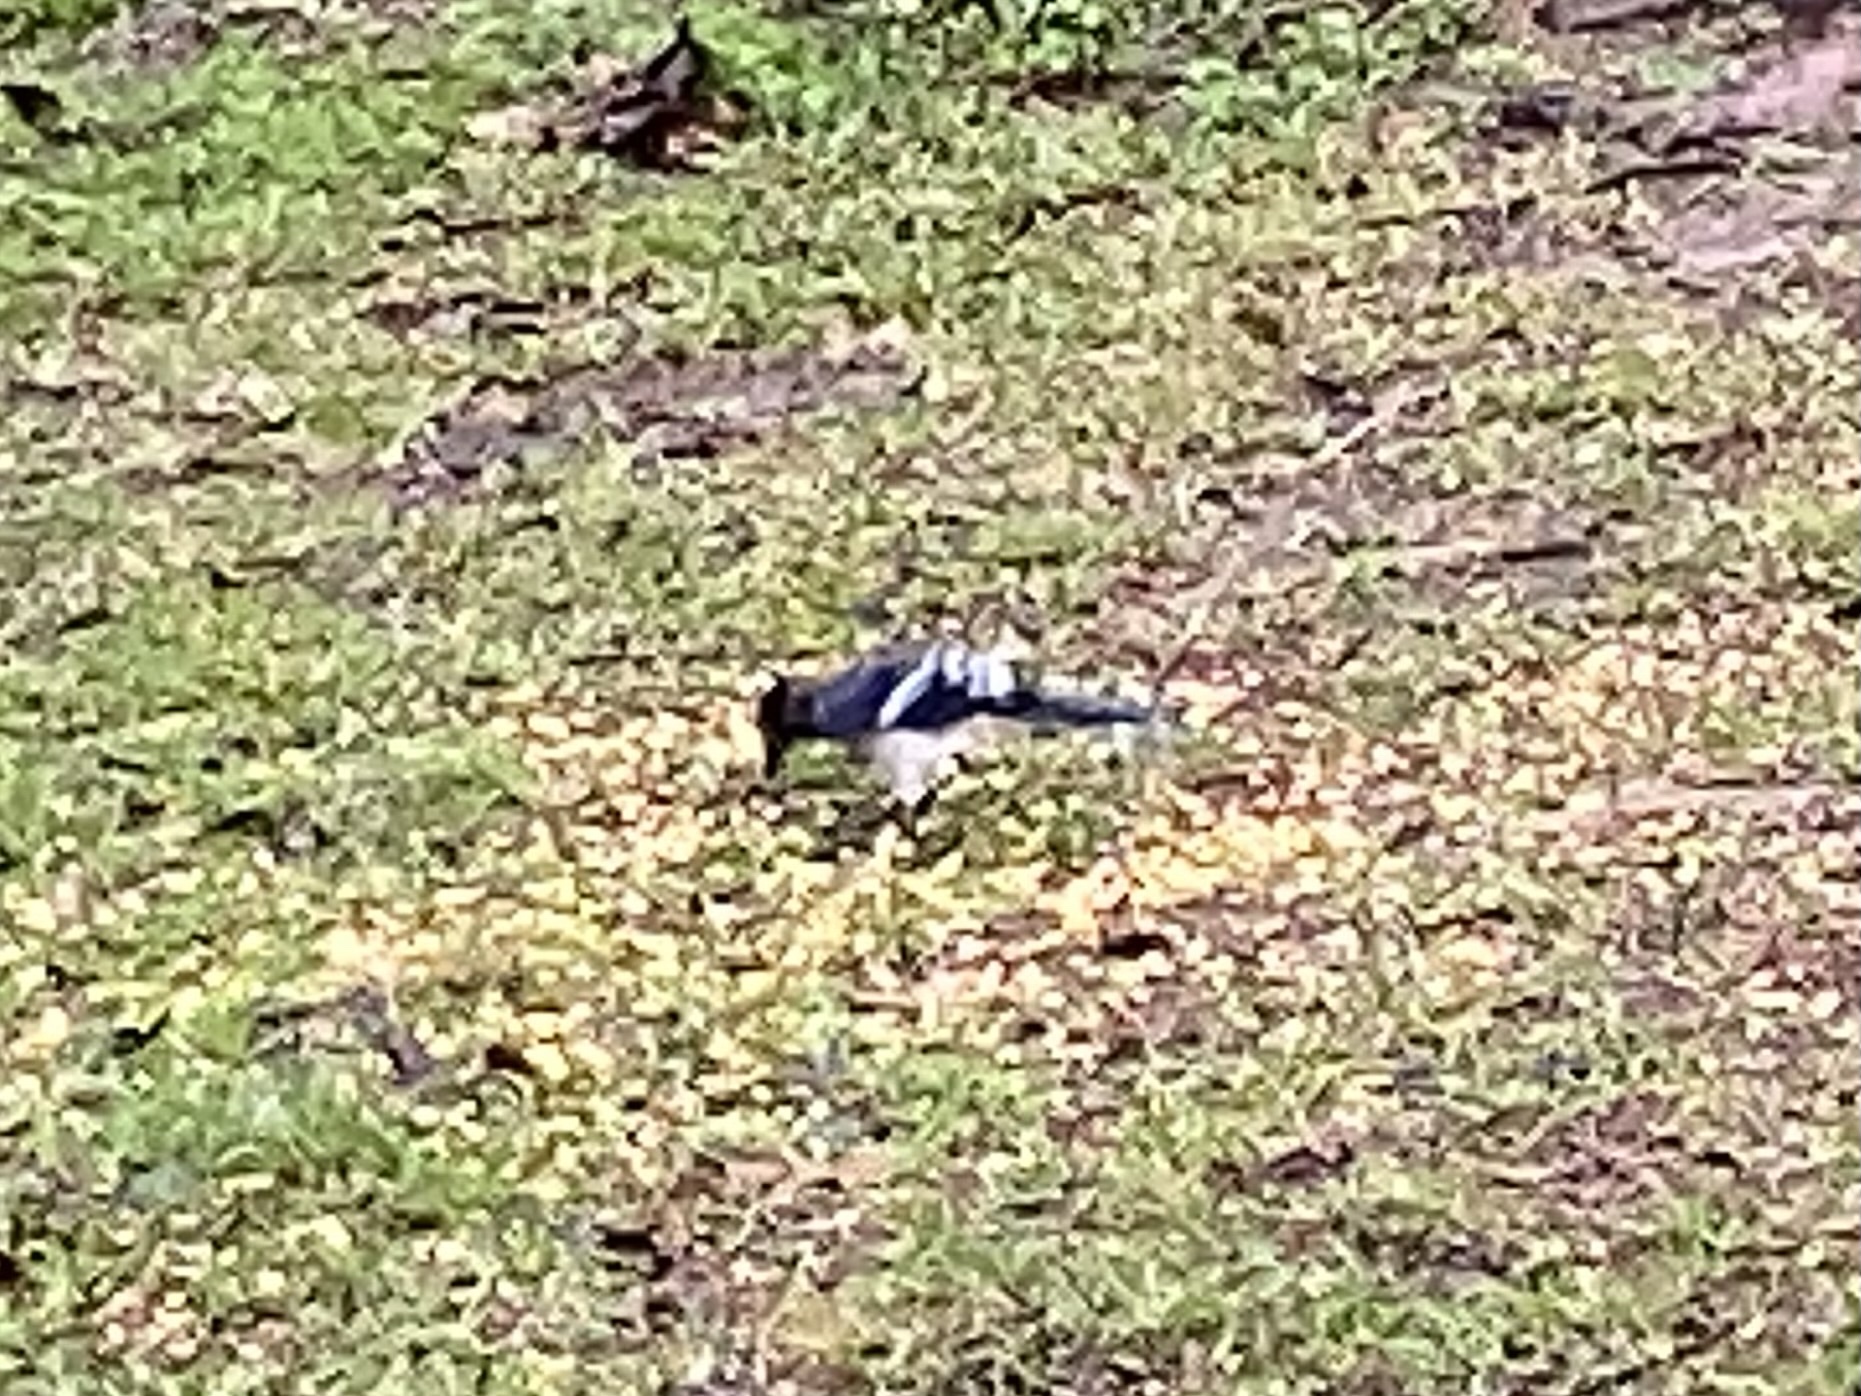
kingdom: Animalia
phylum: Chordata
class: Aves
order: Passeriformes
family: Corvidae
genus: Cyanocitta
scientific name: Cyanocitta cristata
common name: Blue jay
